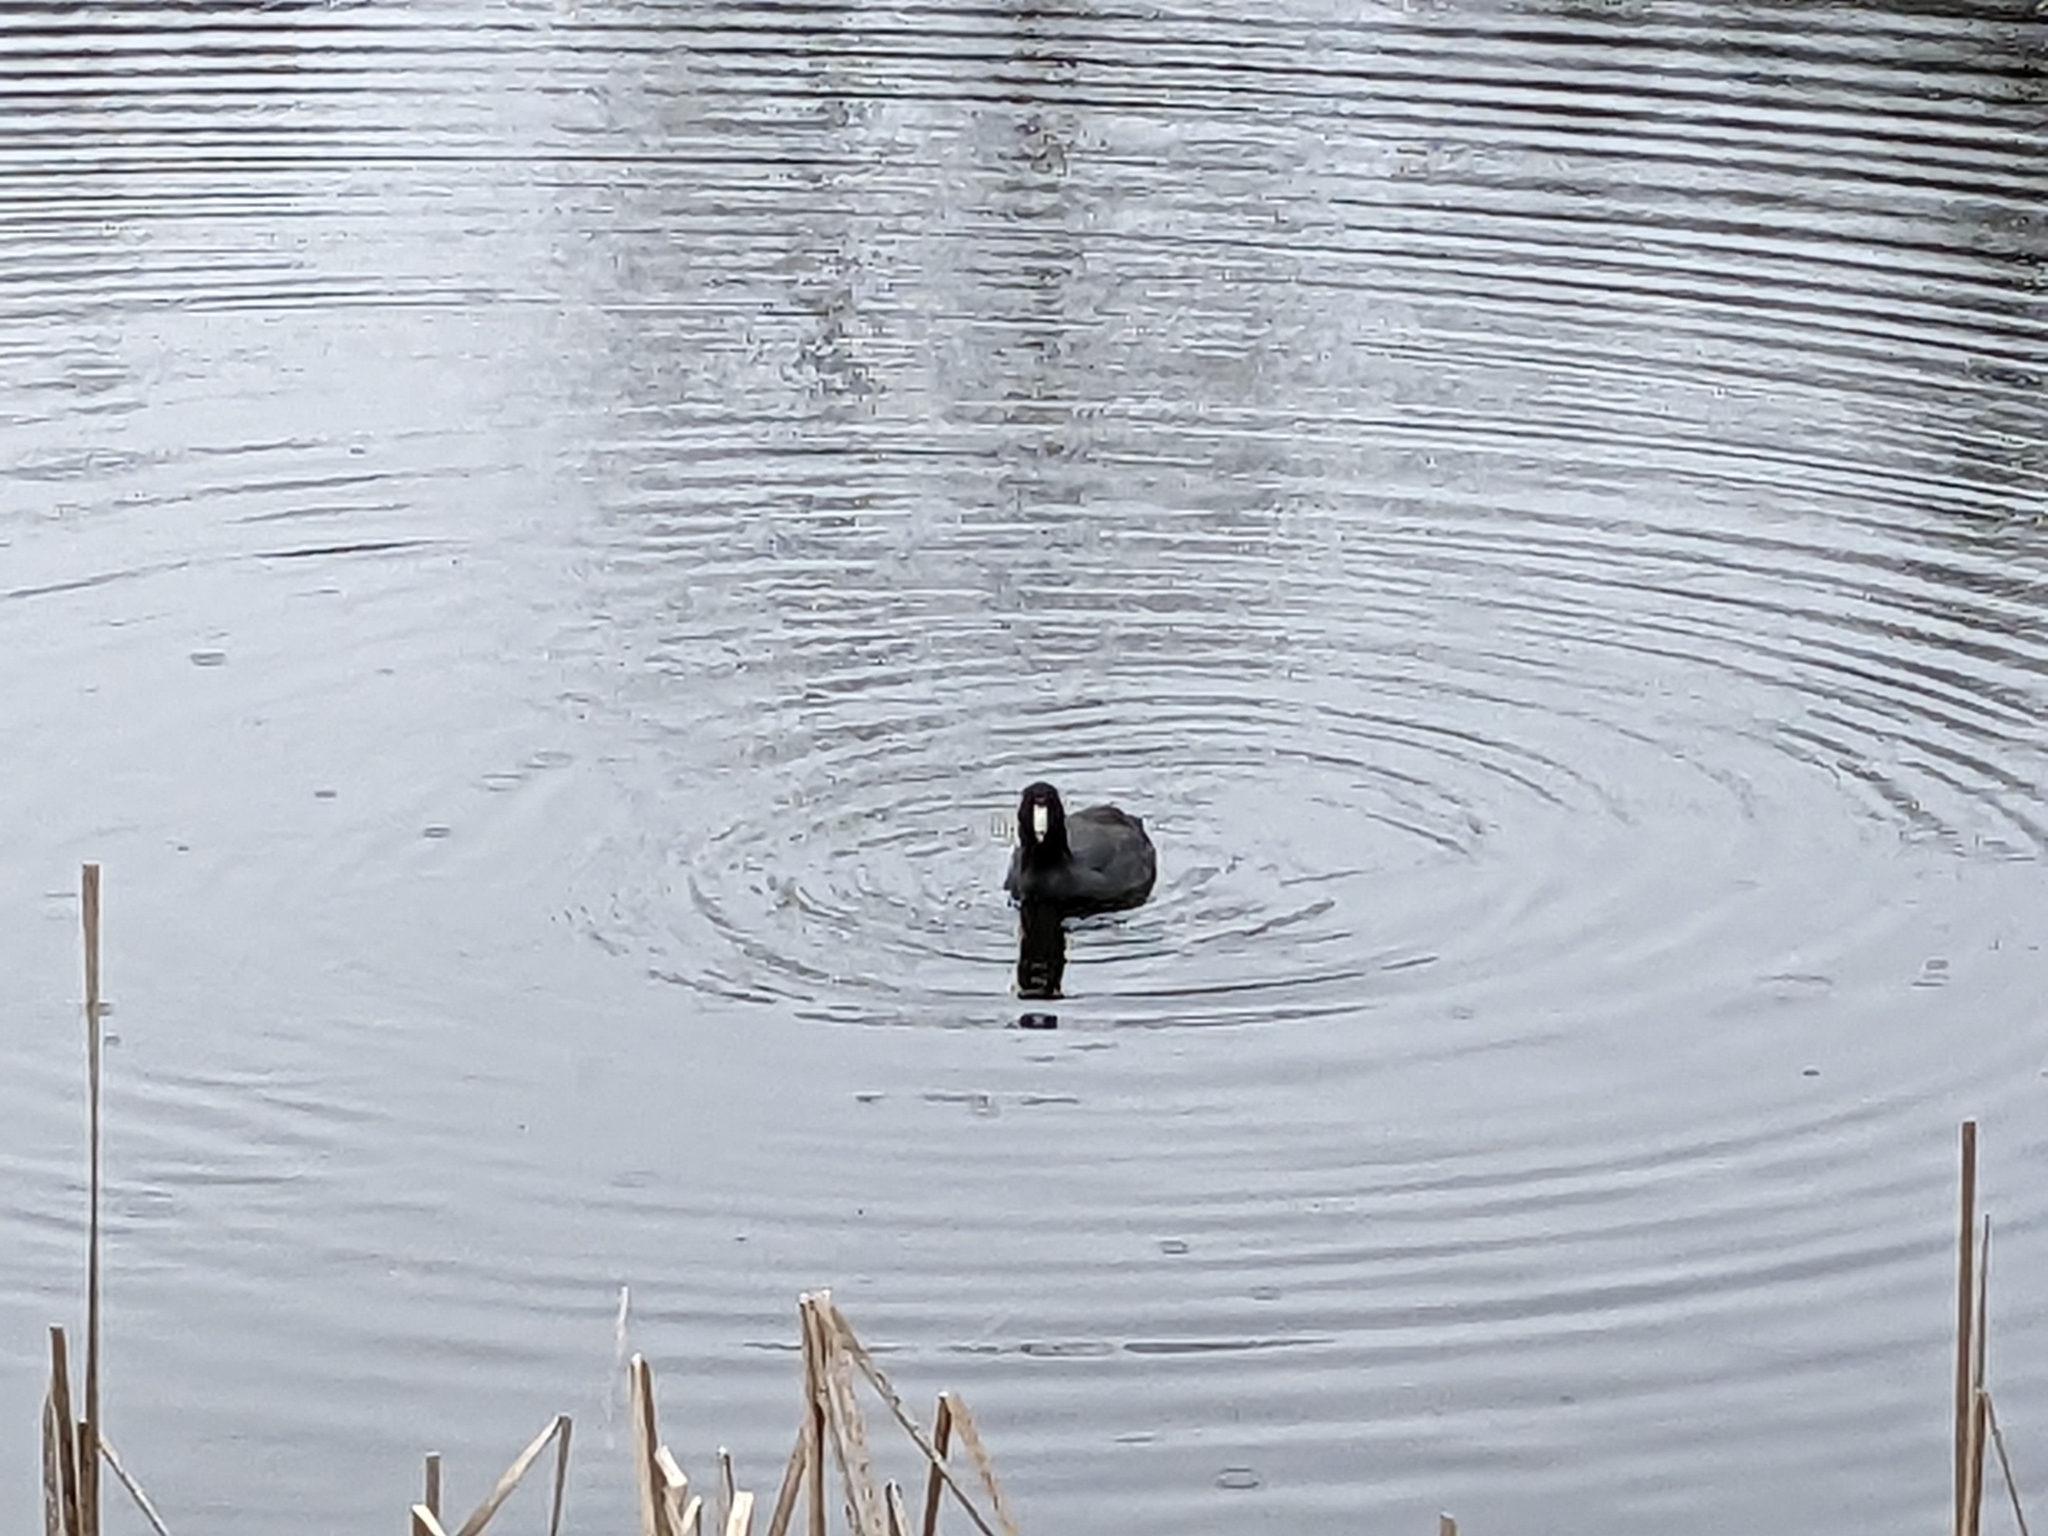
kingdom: Animalia
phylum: Chordata
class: Aves
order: Gruiformes
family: Rallidae
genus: Fulica
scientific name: Fulica americana
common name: American coot
